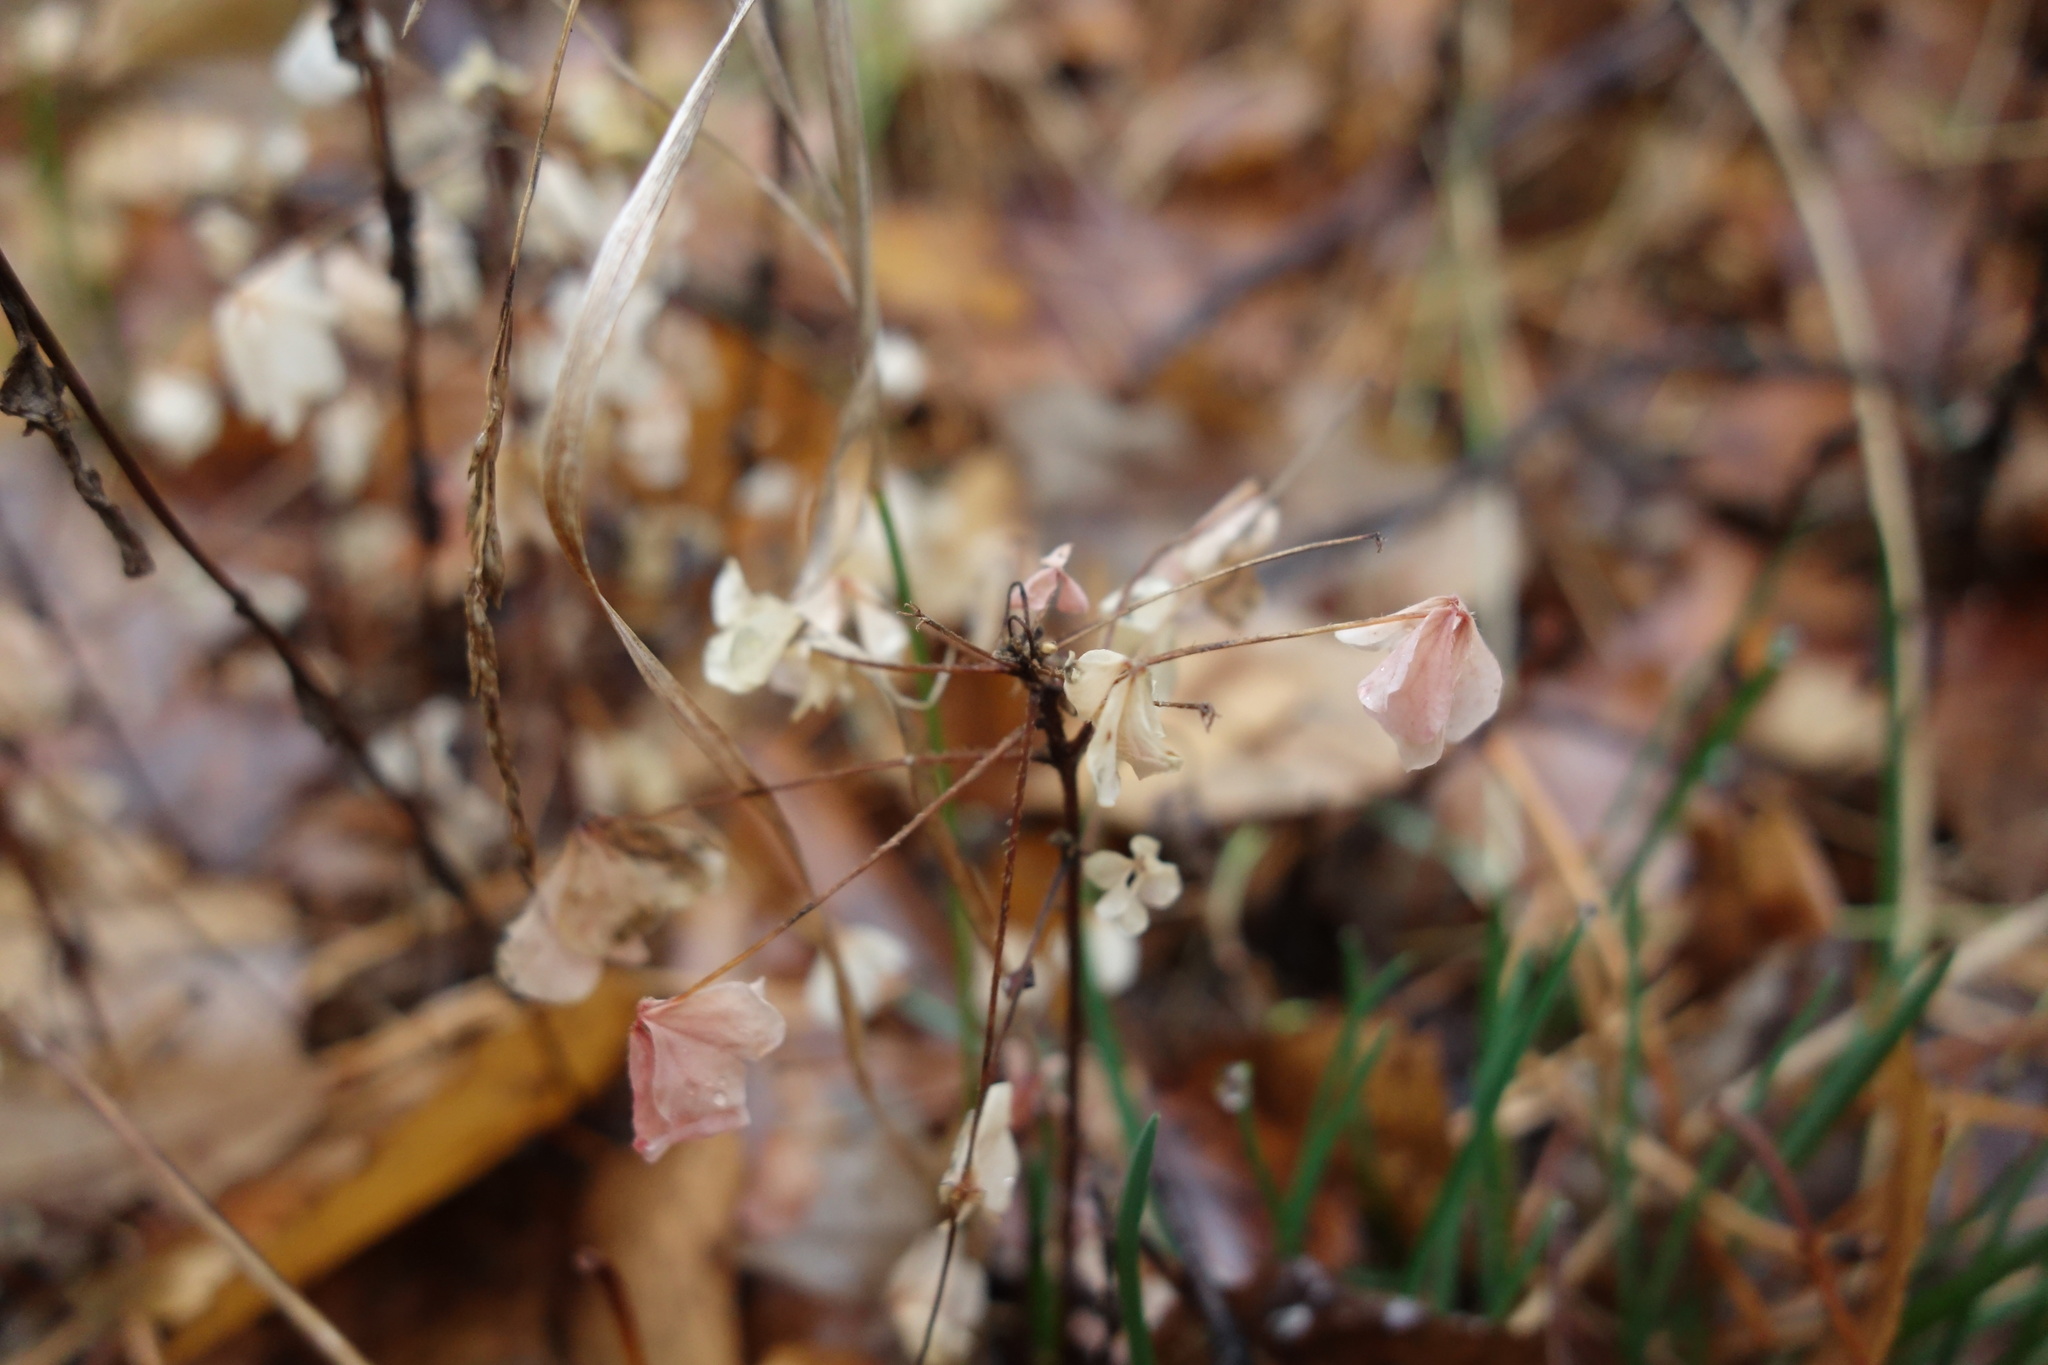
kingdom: Plantae
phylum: Tracheophyta
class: Magnoliopsida
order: Oxalidales
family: Oxalidaceae
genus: Oxalis
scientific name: Oxalis stricta
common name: Upright yellow-sorrel
